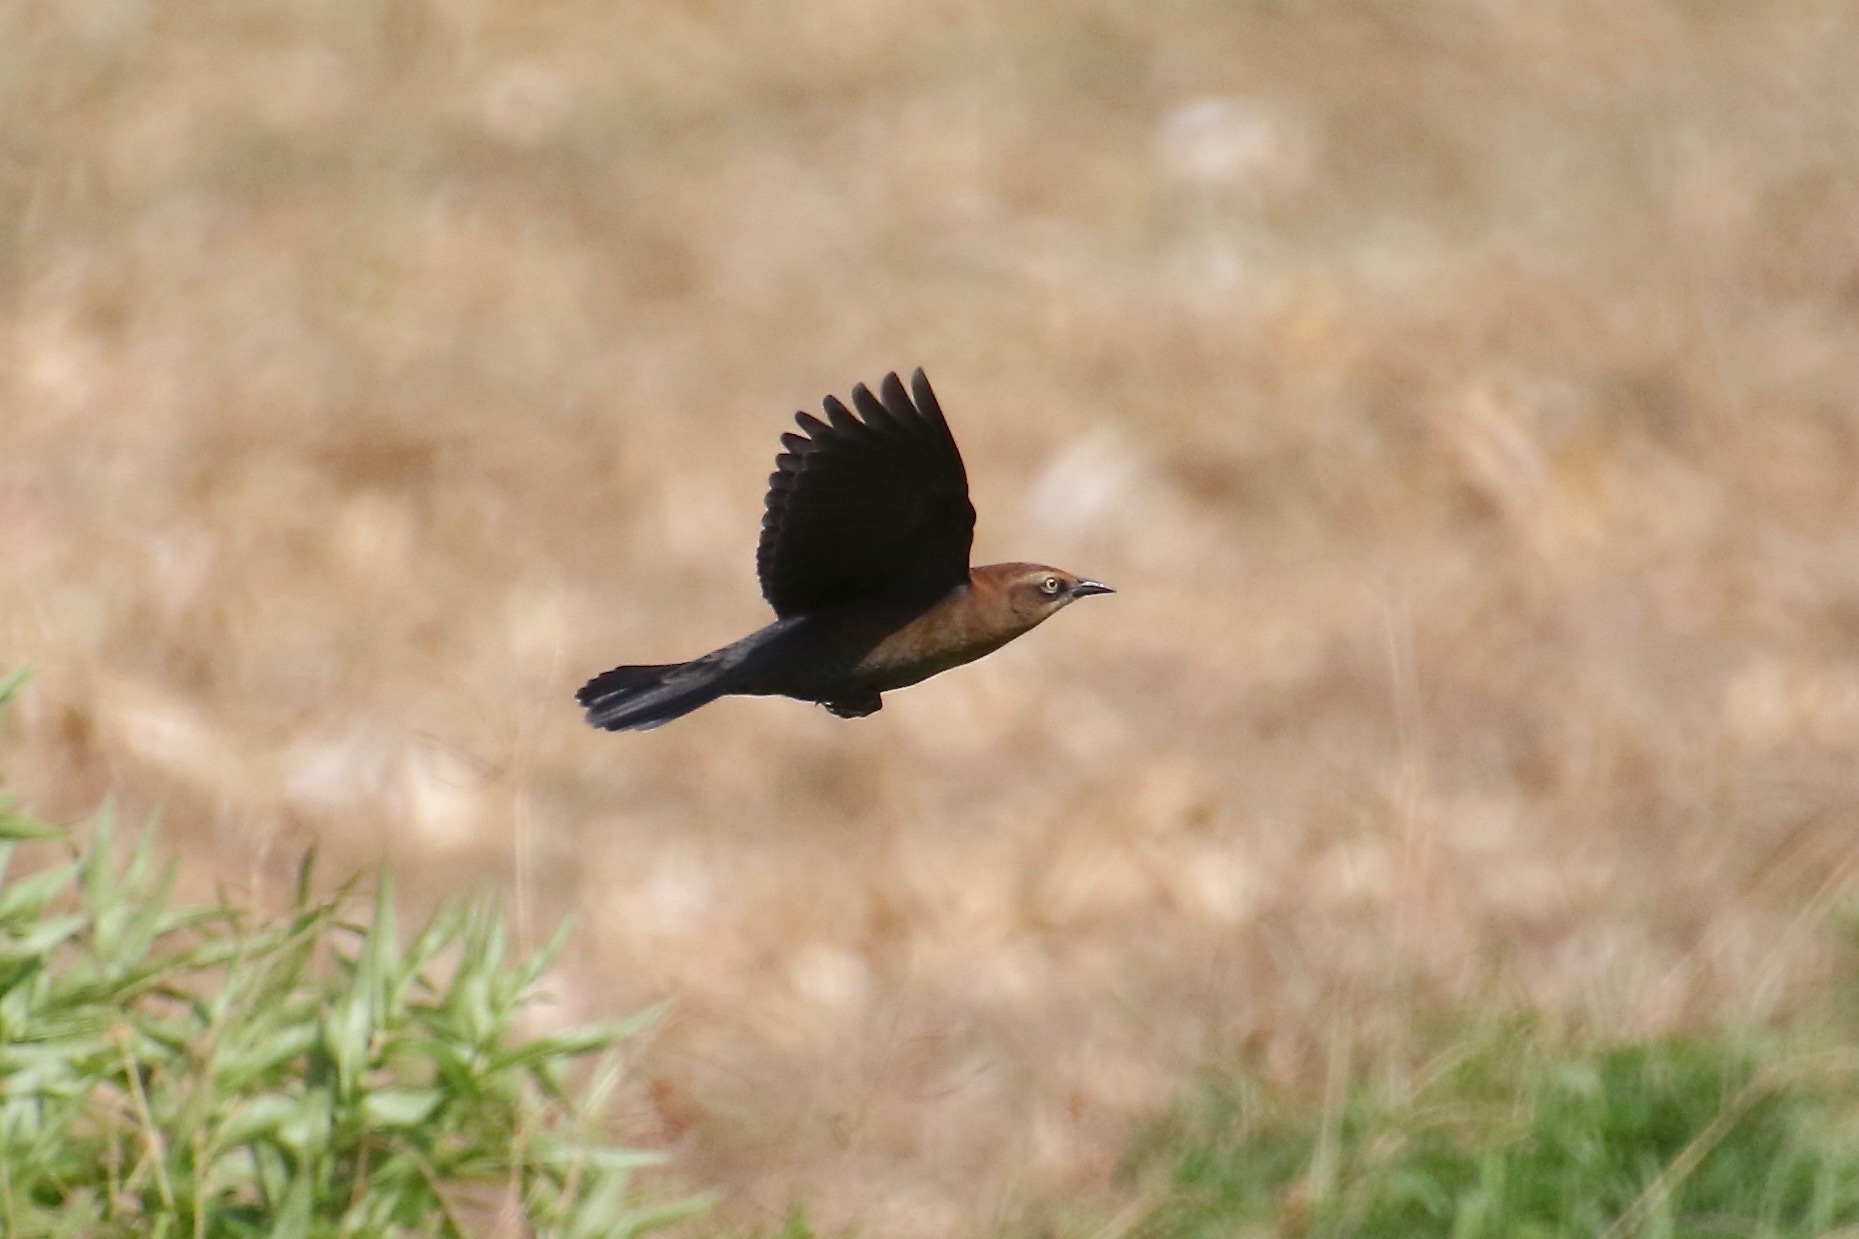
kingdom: Animalia
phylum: Chordata
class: Aves
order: Passeriformes
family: Icteridae
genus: Euphagus
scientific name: Euphagus carolinus
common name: Rusty blackbird
